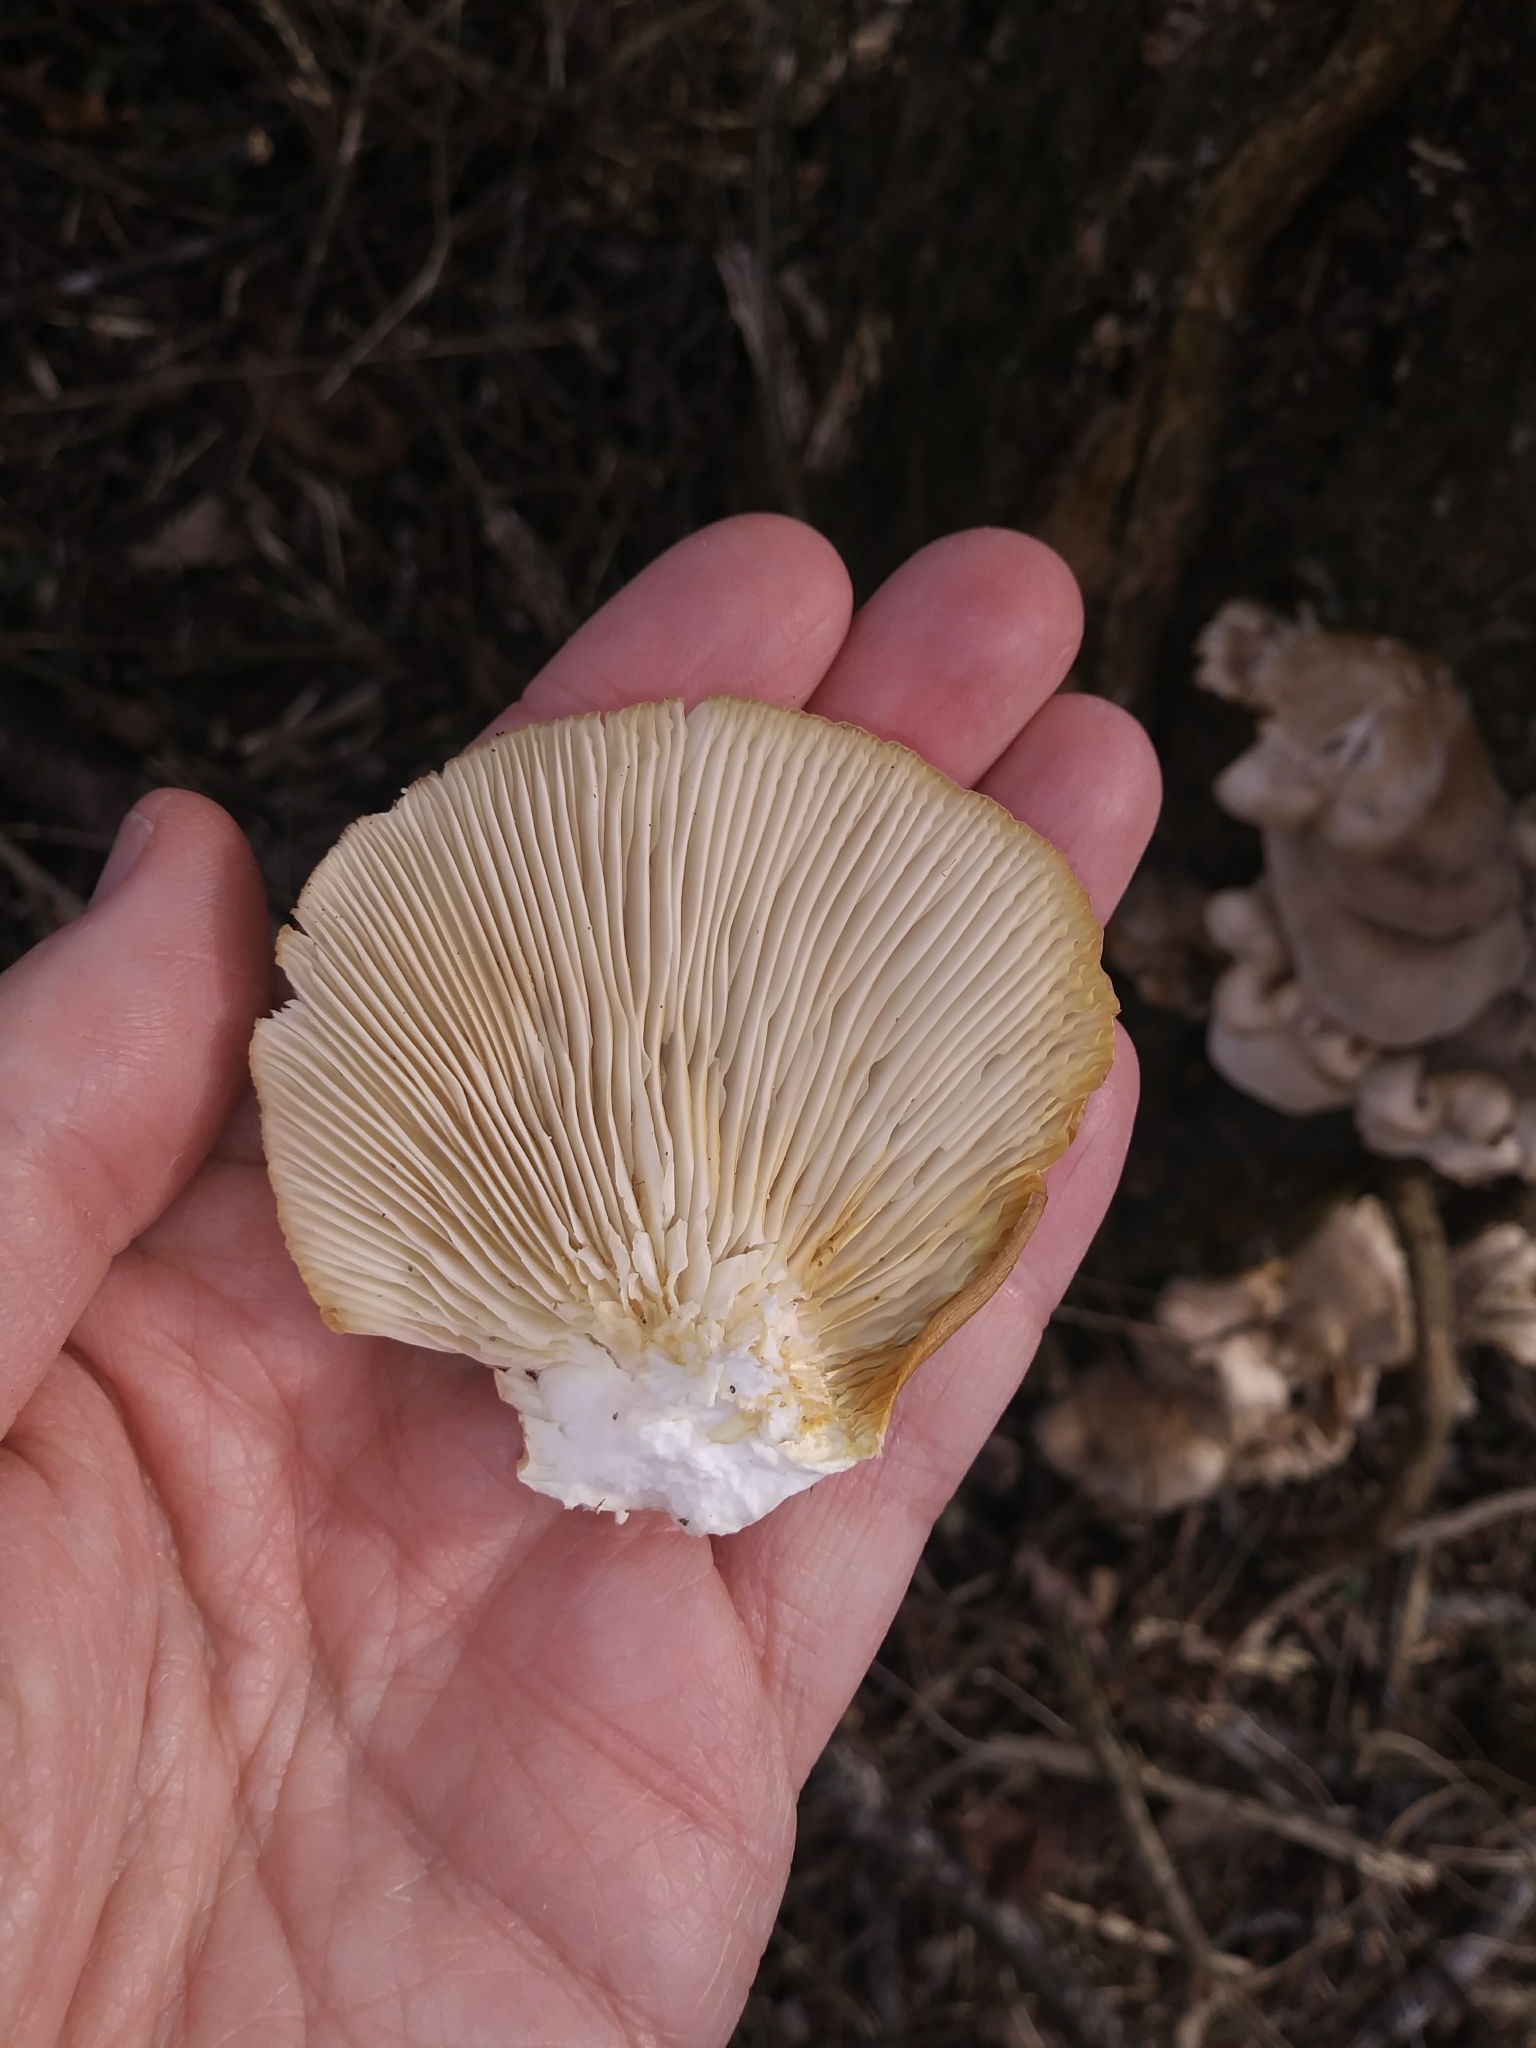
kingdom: Fungi
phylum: Basidiomycota
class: Agaricomycetes
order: Agaricales
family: Pleurotaceae
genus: Pleurotus
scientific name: Pleurotus ostreatus
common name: Oyster mushroom
